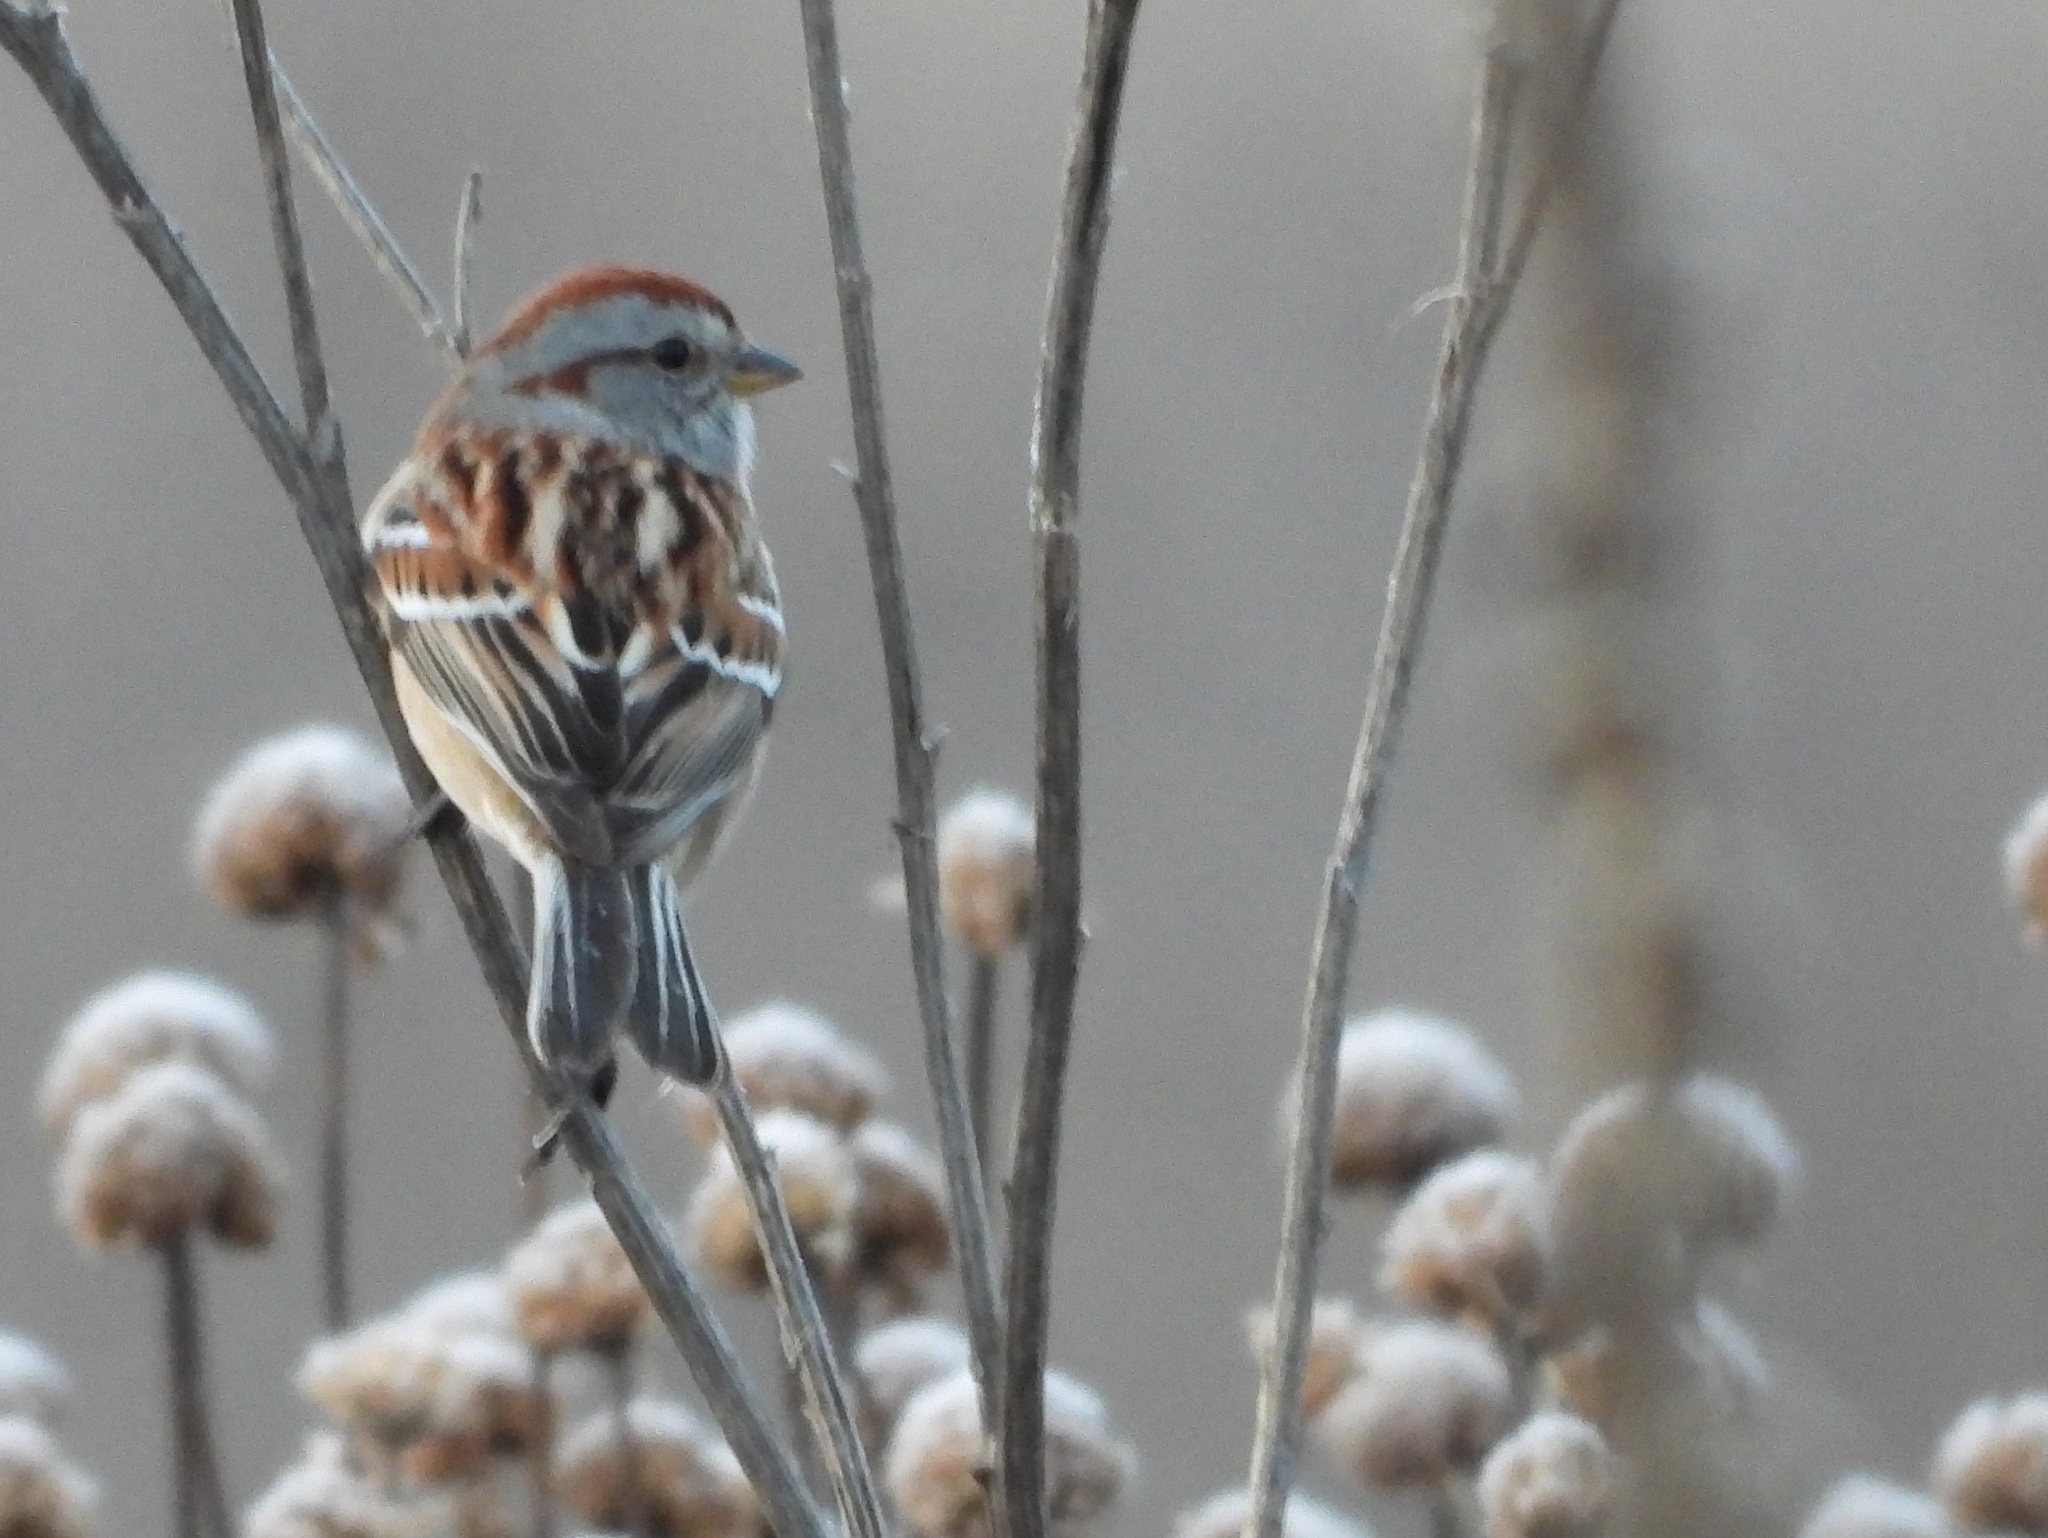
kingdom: Animalia
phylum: Chordata
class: Aves
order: Passeriformes
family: Passerellidae
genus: Spizelloides
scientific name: Spizelloides arborea
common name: American tree sparrow
